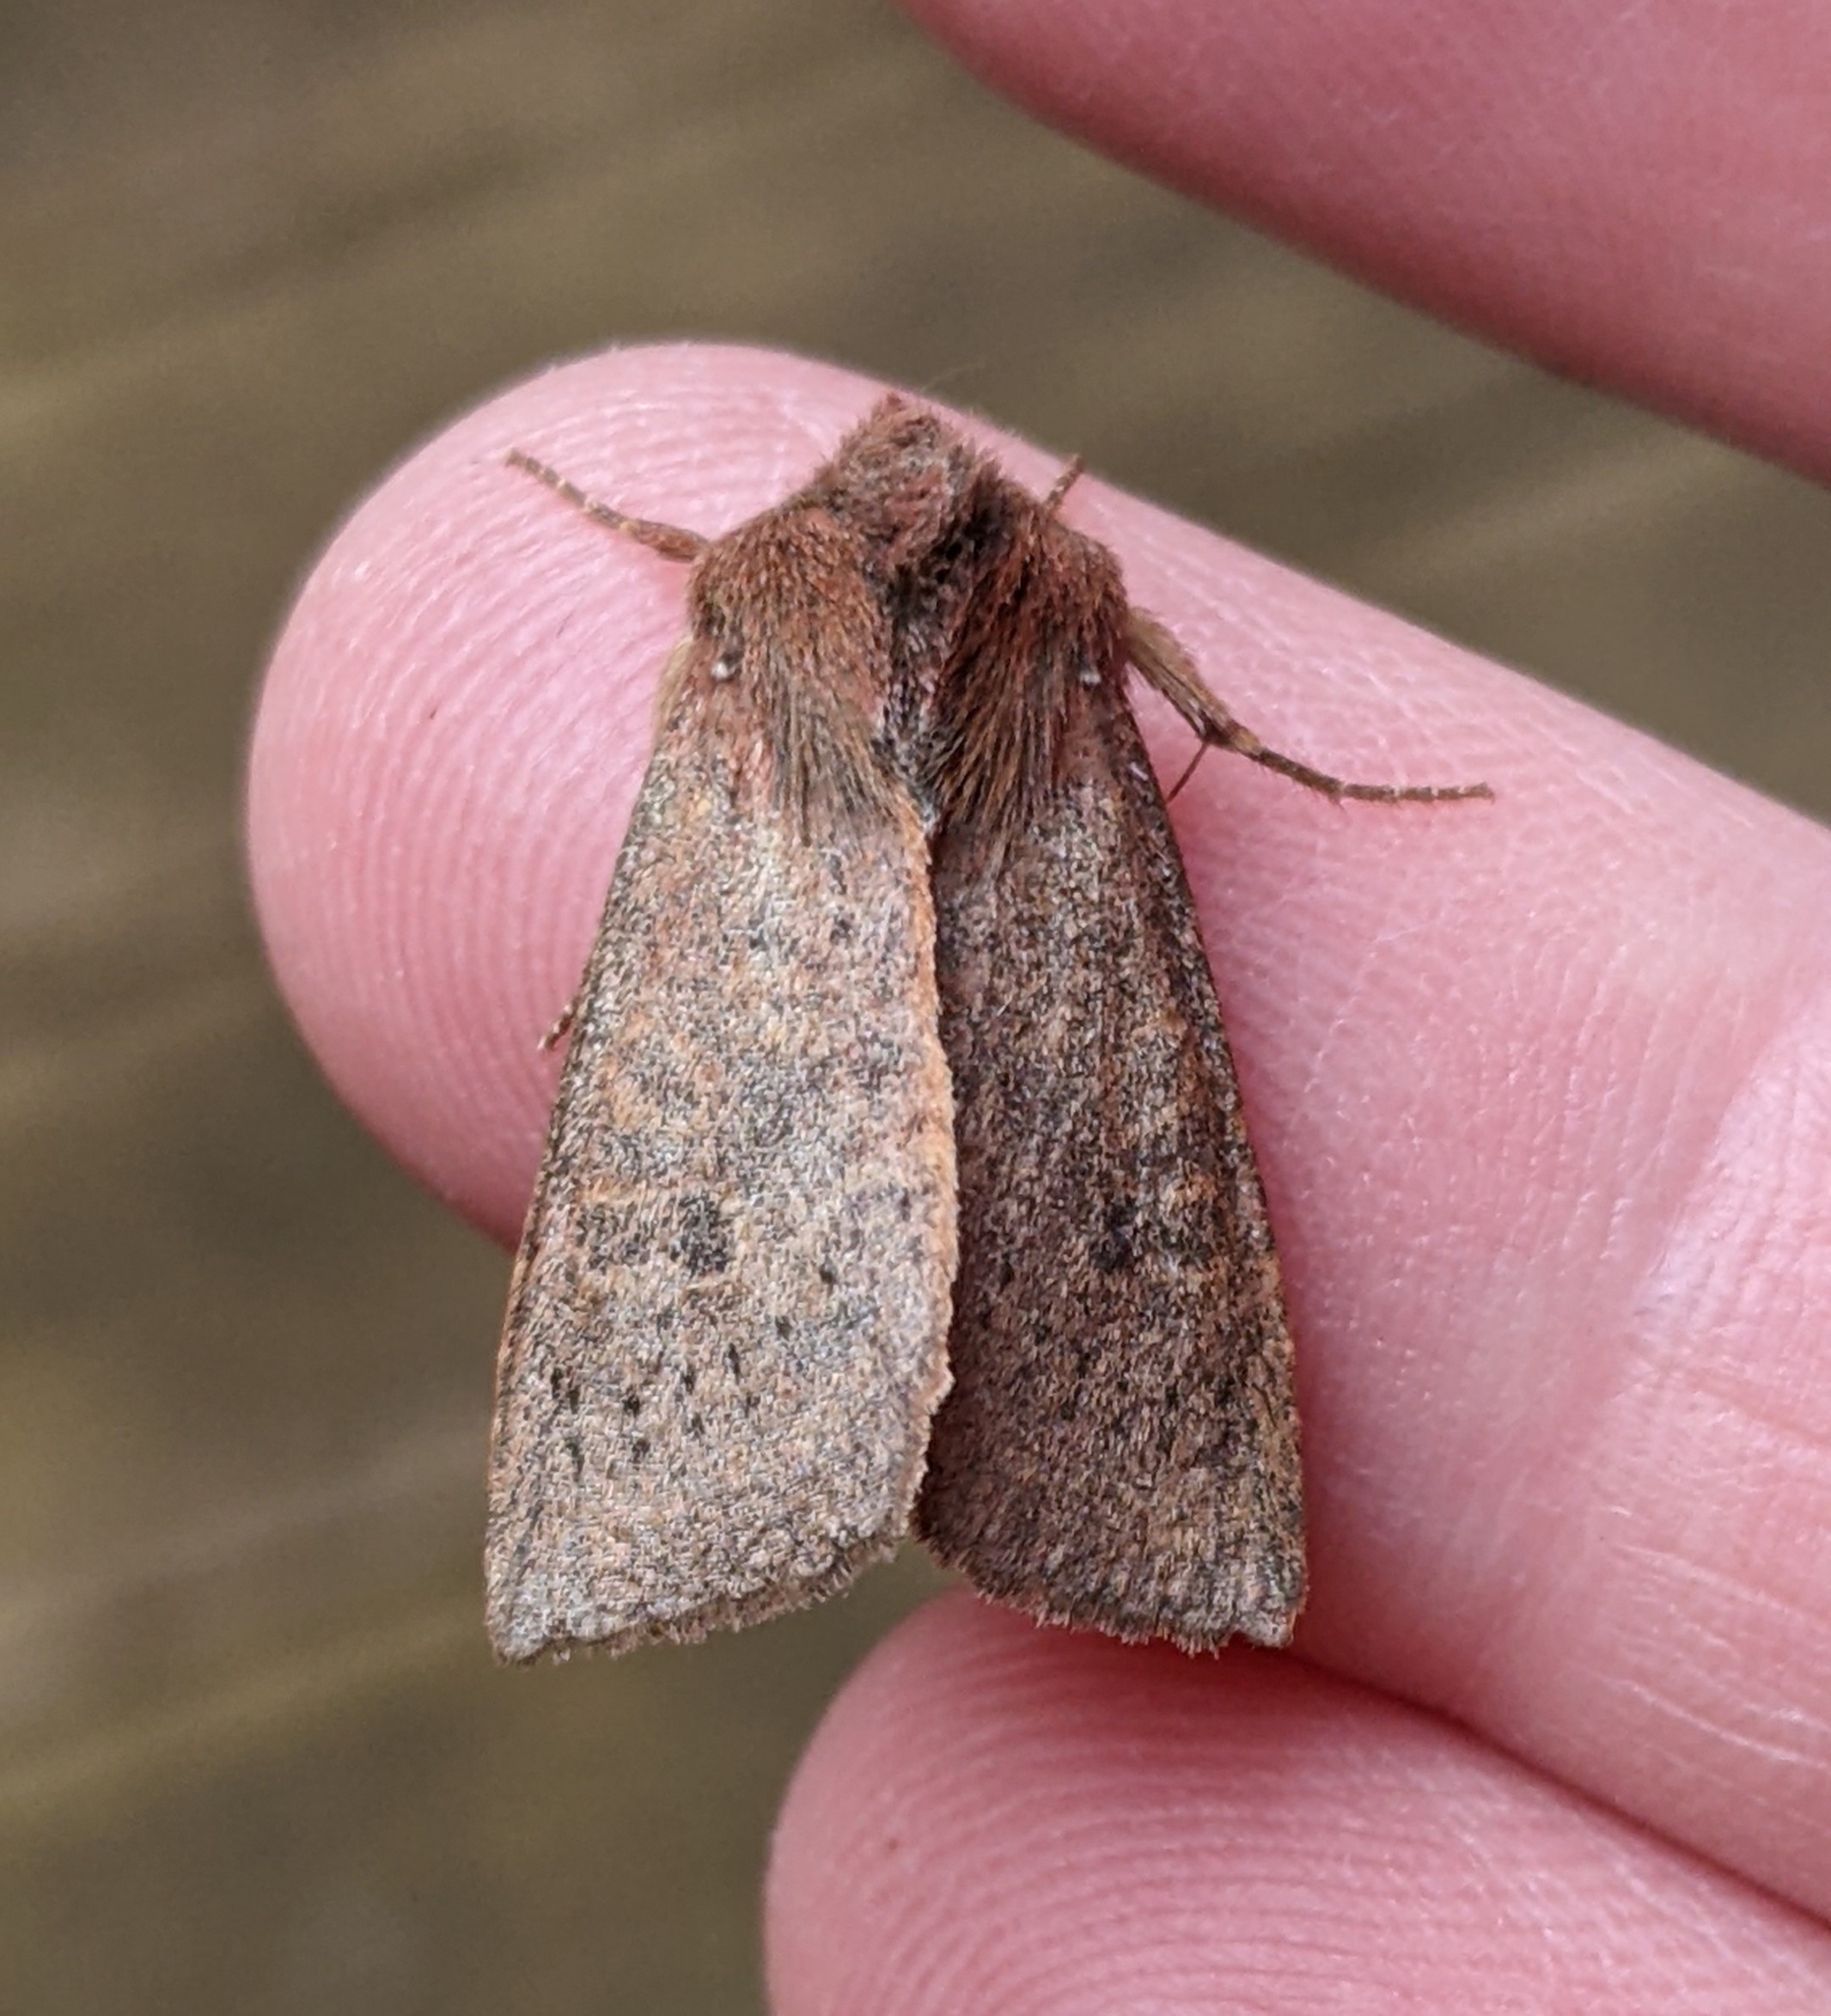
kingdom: Animalia
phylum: Arthropoda
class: Insecta
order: Lepidoptera
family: Noctuidae
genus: Orthosia
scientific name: Orthosia transparens
